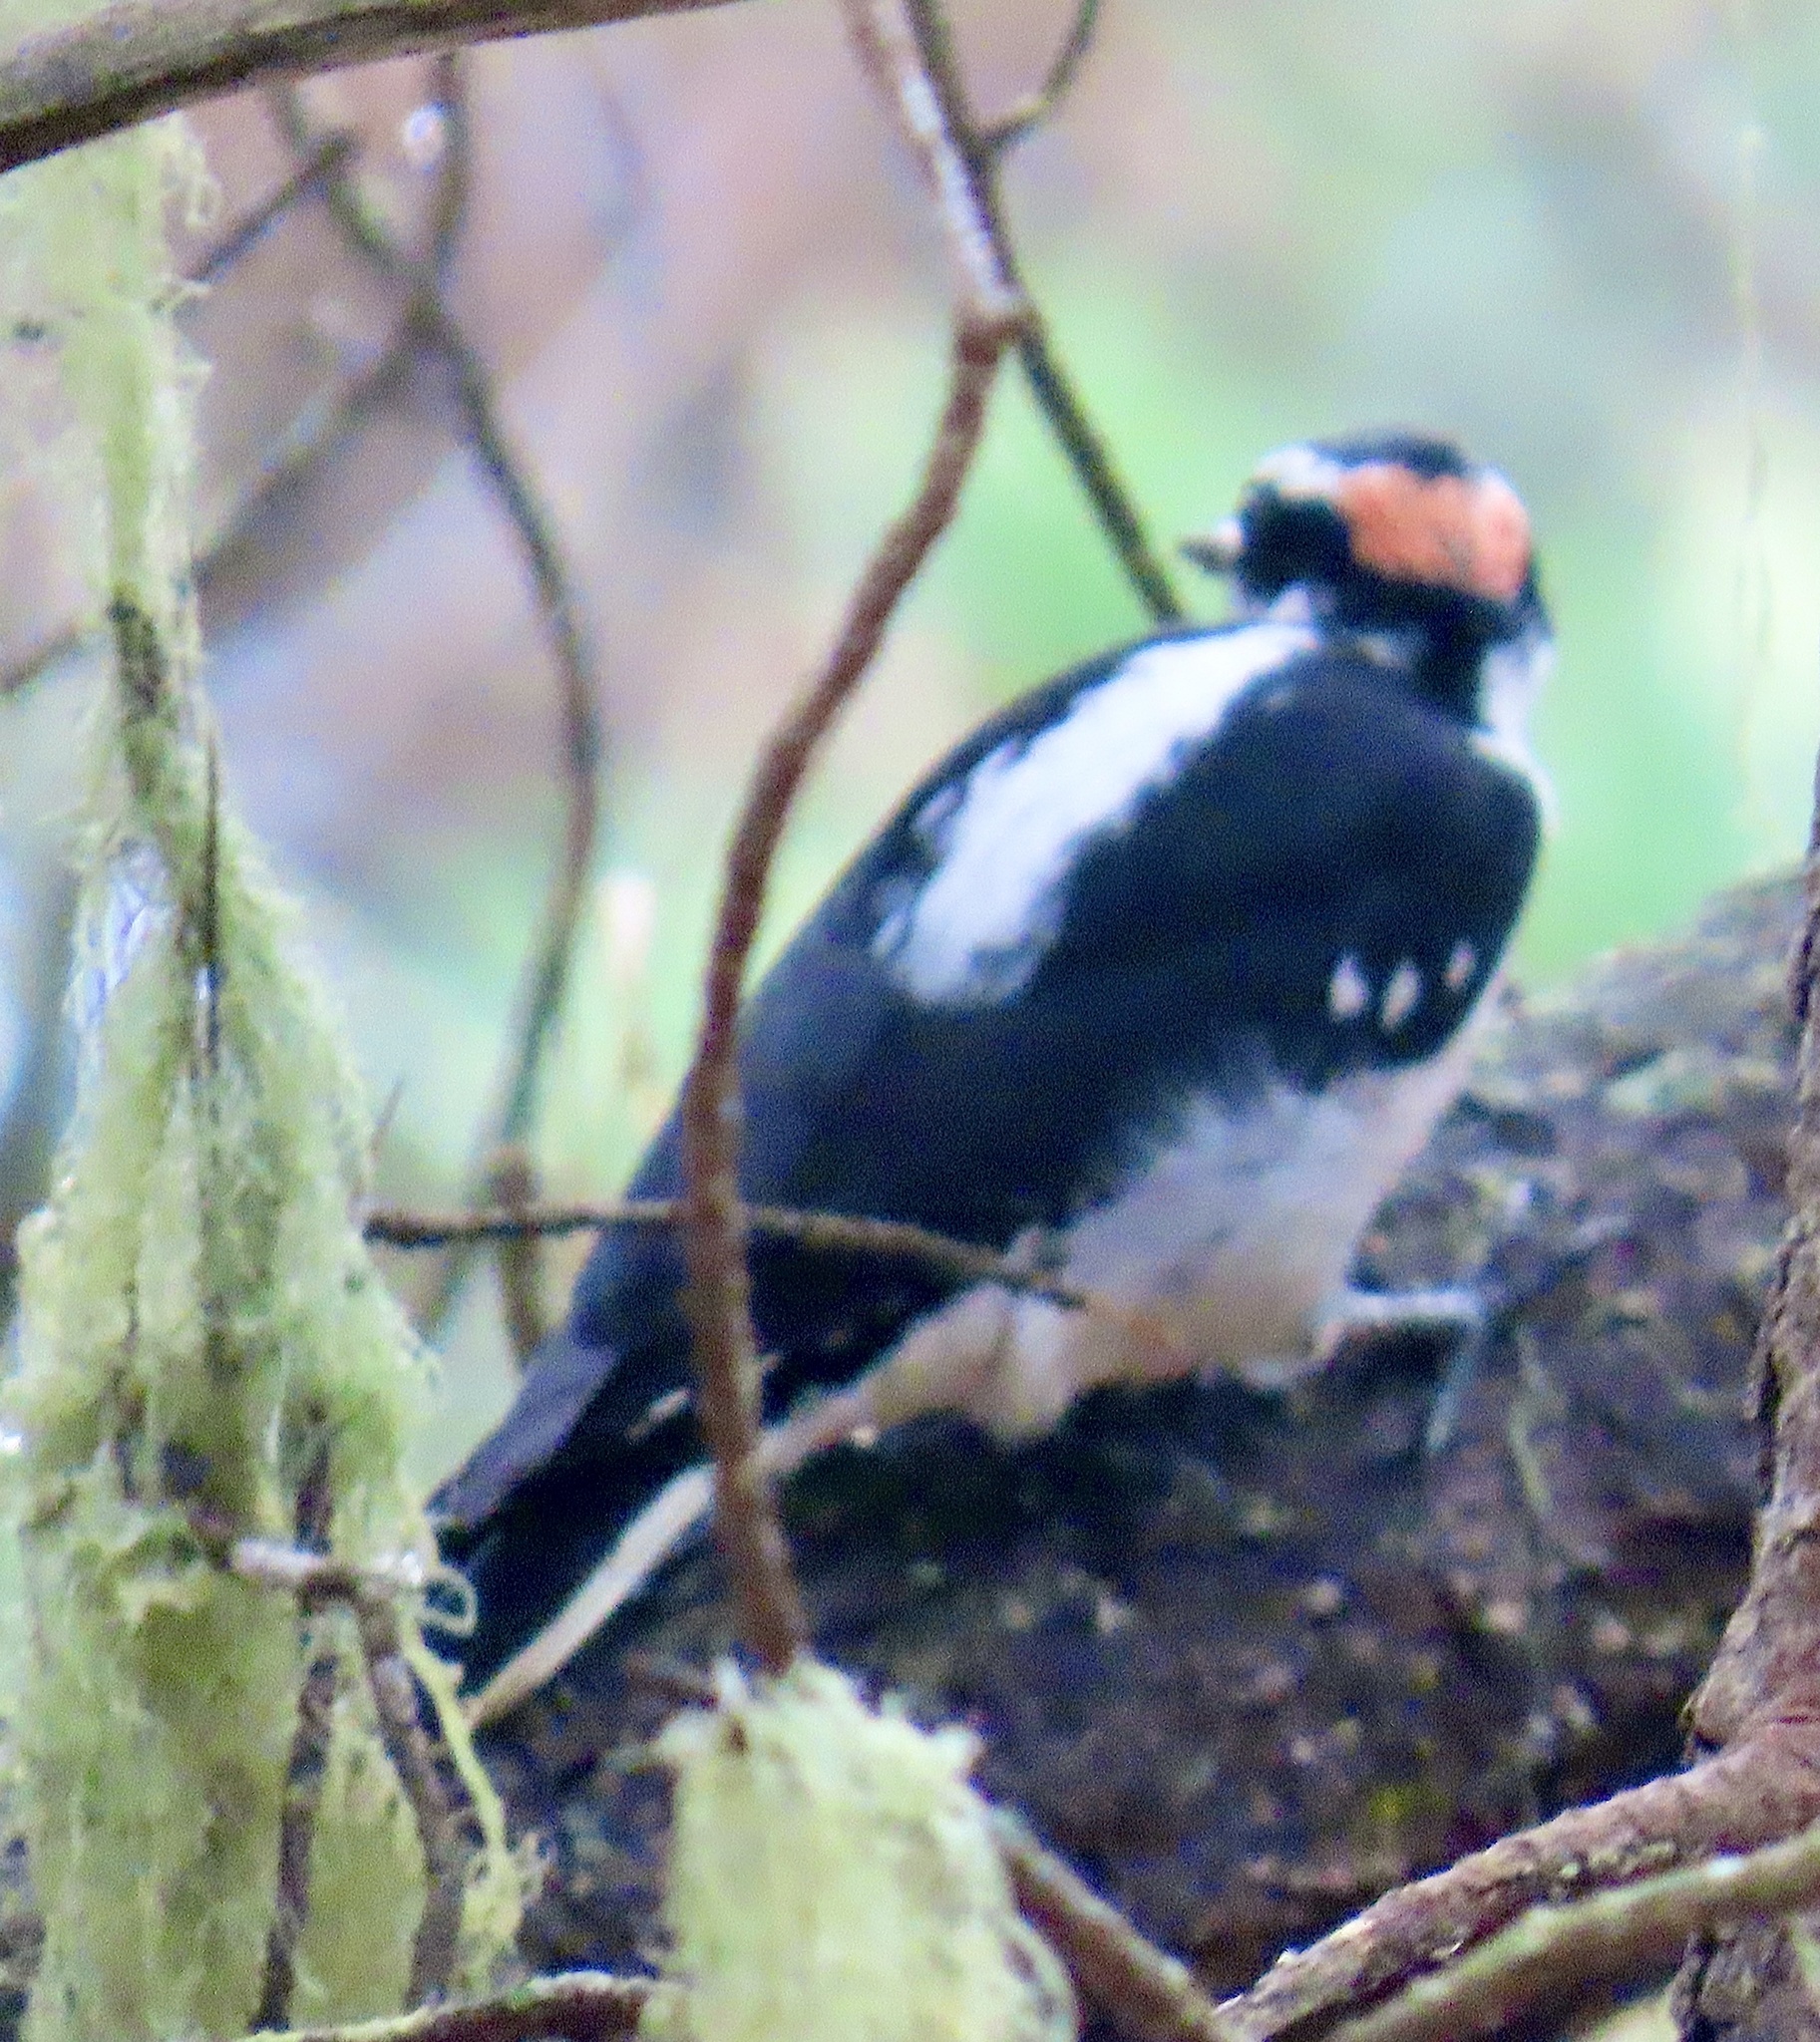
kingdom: Animalia
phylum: Chordata
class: Aves
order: Piciformes
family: Picidae
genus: Leuconotopicus
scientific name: Leuconotopicus villosus
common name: Hairy woodpecker
